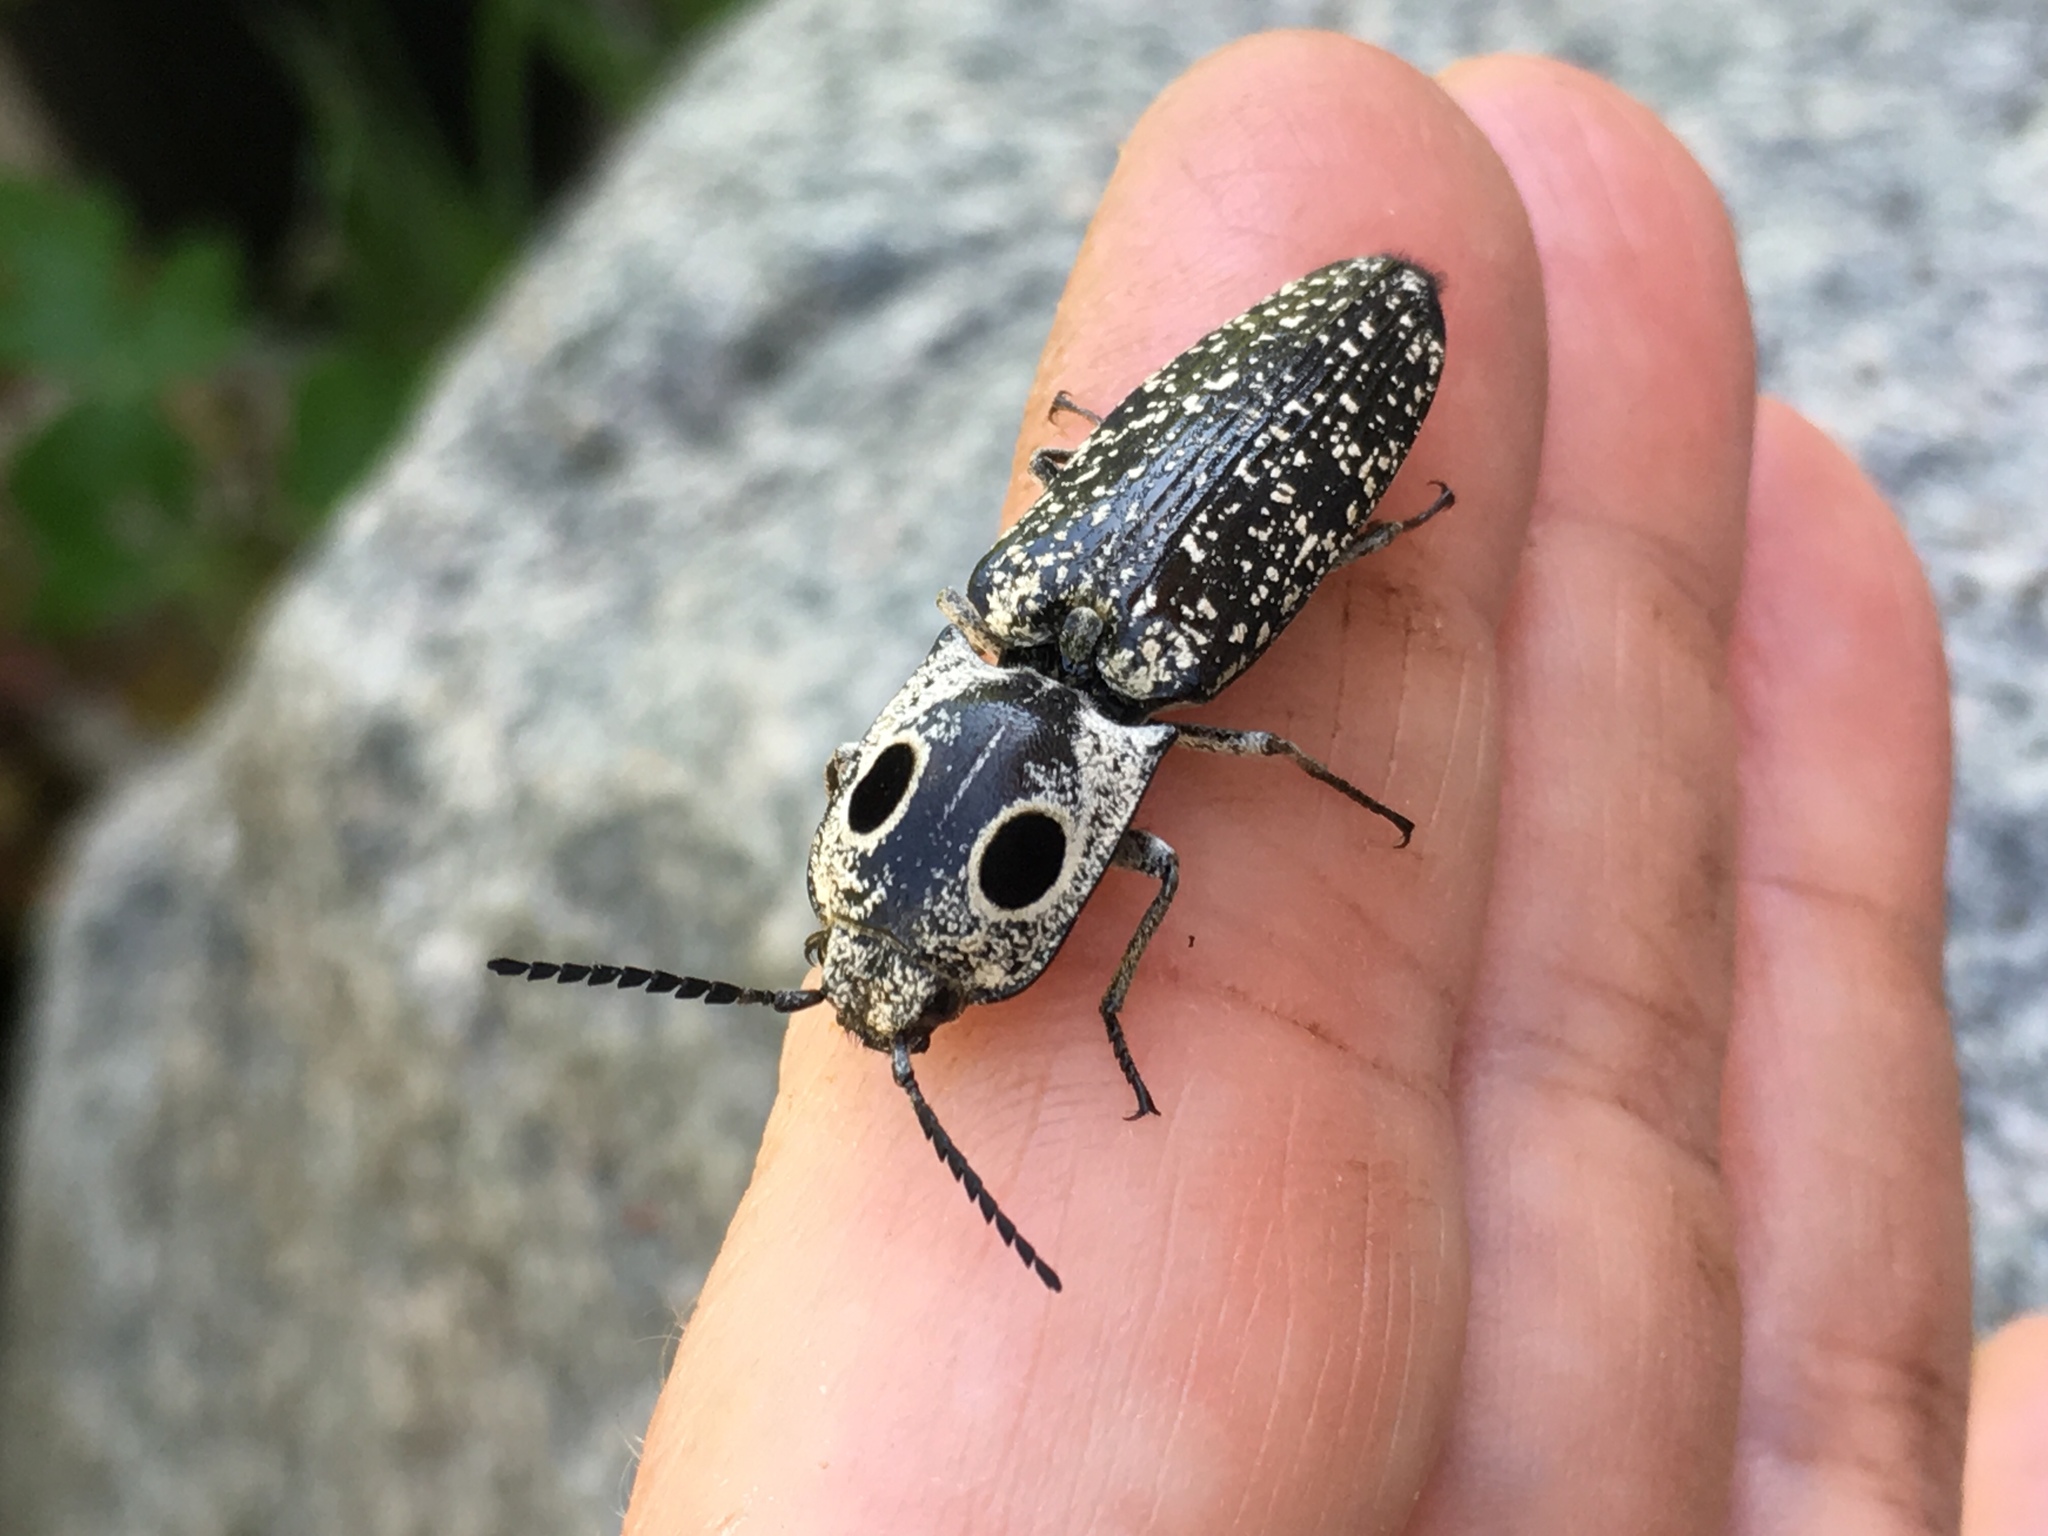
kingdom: Animalia
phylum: Arthropoda
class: Insecta
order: Coleoptera
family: Elateridae
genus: Alaus
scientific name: Alaus oculatus
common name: Eastern eyed click beetle
